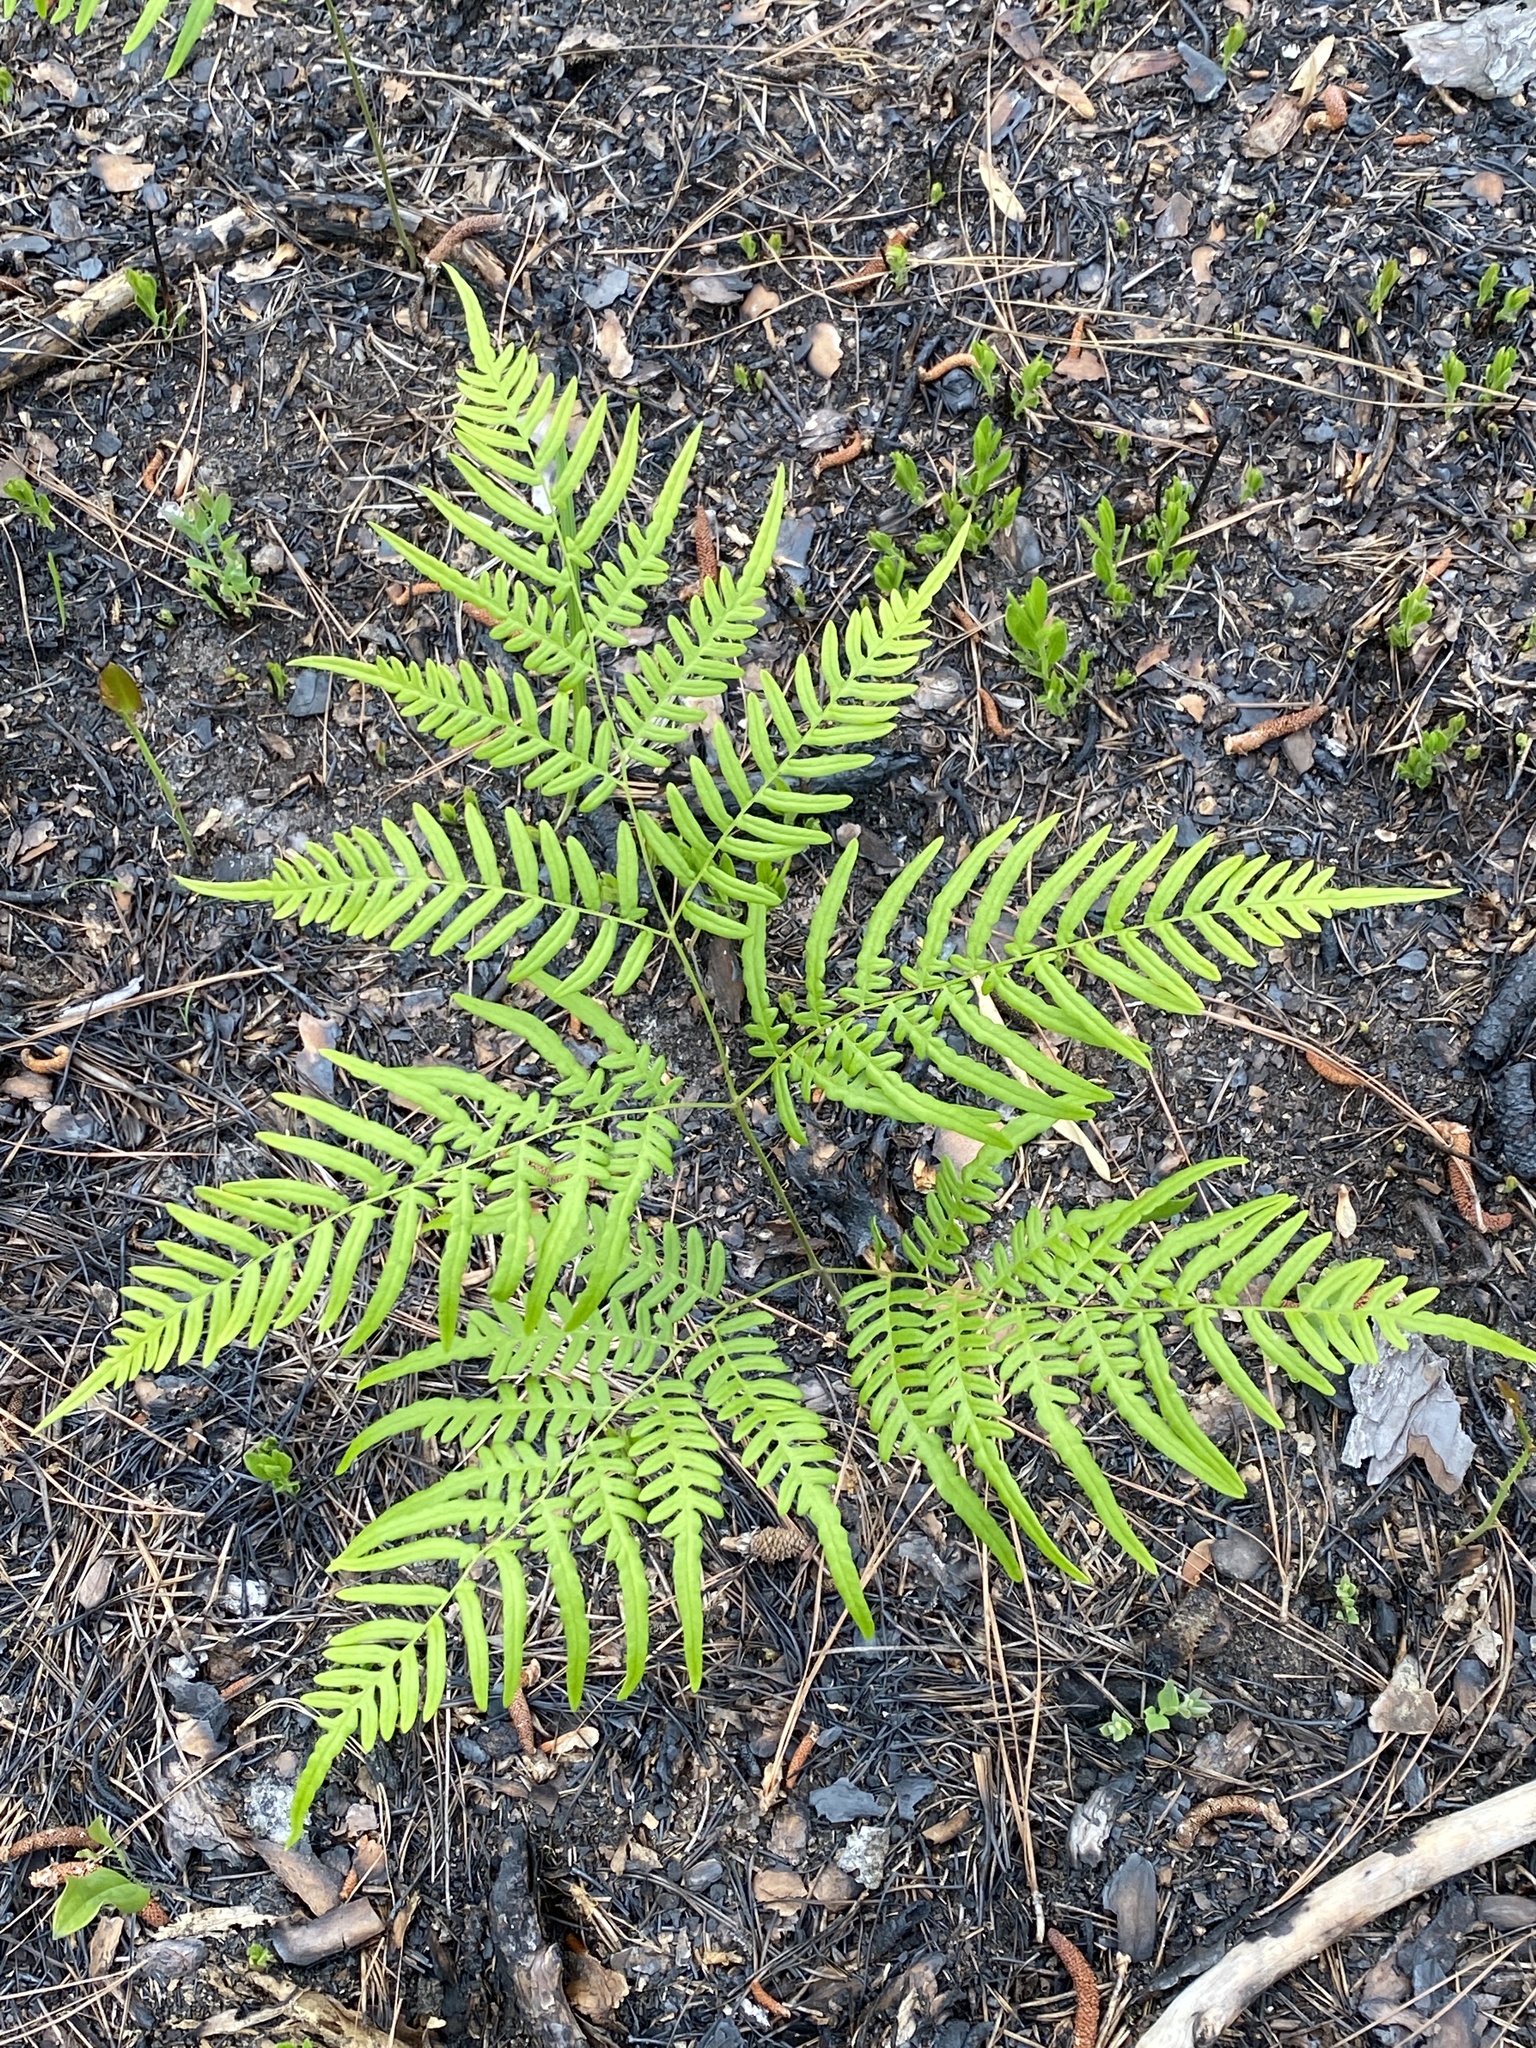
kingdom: Plantae
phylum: Tracheophyta
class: Polypodiopsida
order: Polypodiales
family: Dennstaedtiaceae
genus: Pteridium
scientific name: Pteridium
